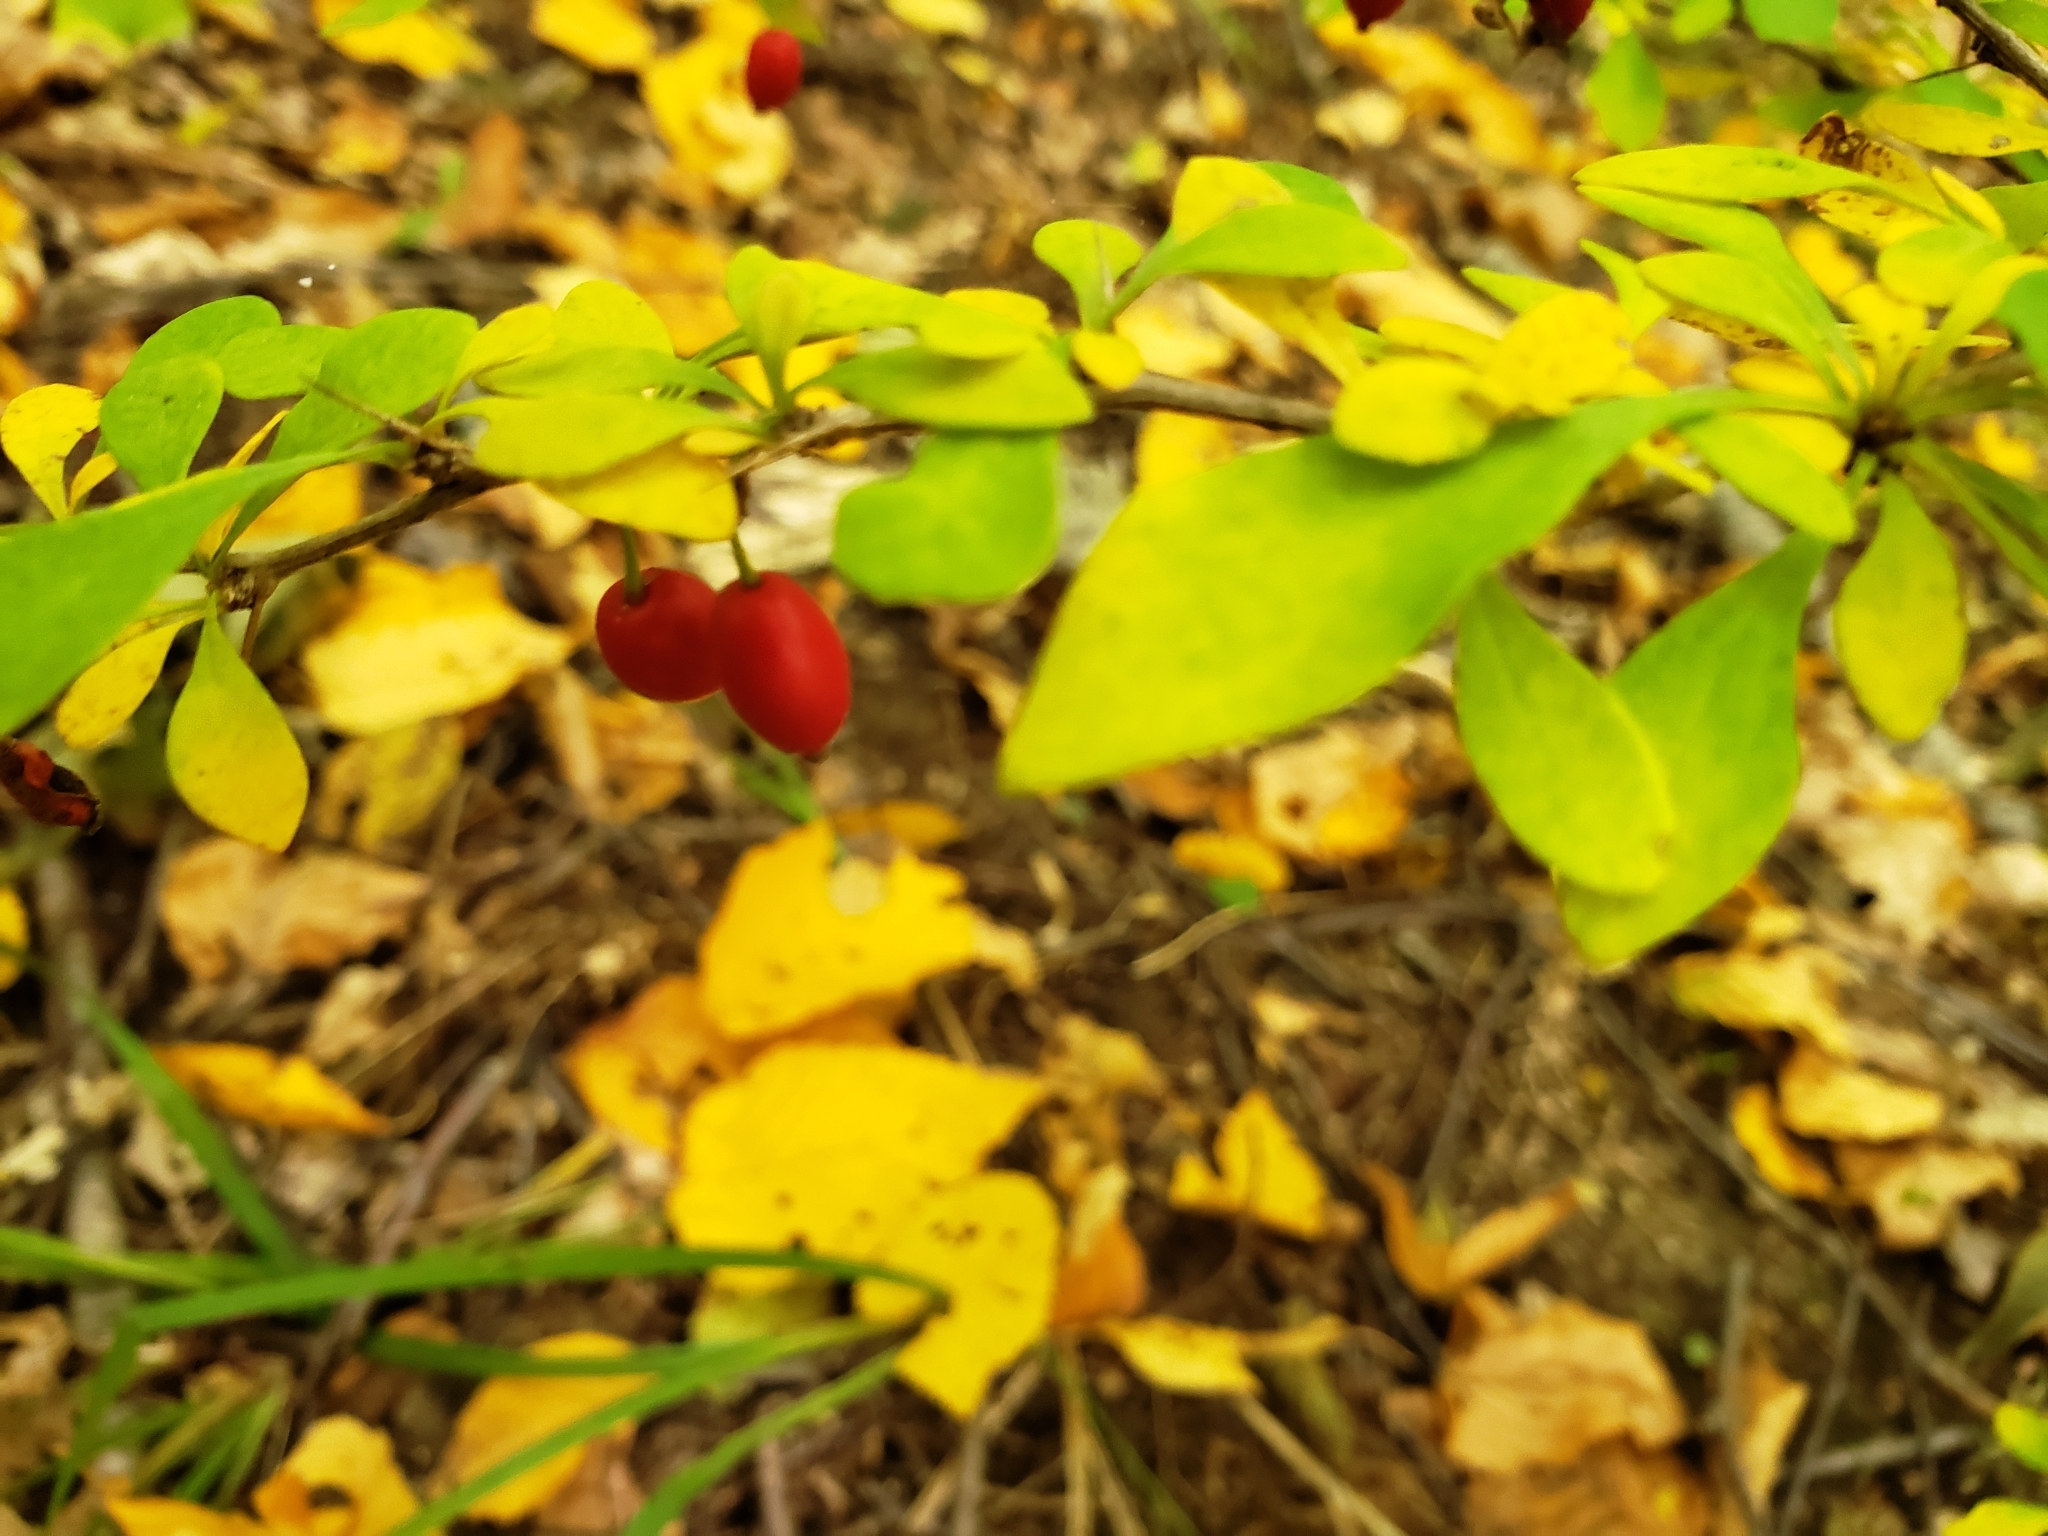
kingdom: Plantae
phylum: Tracheophyta
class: Magnoliopsida
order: Ranunculales
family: Berberidaceae
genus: Berberis
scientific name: Berberis thunbergii
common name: Japanese barberry
